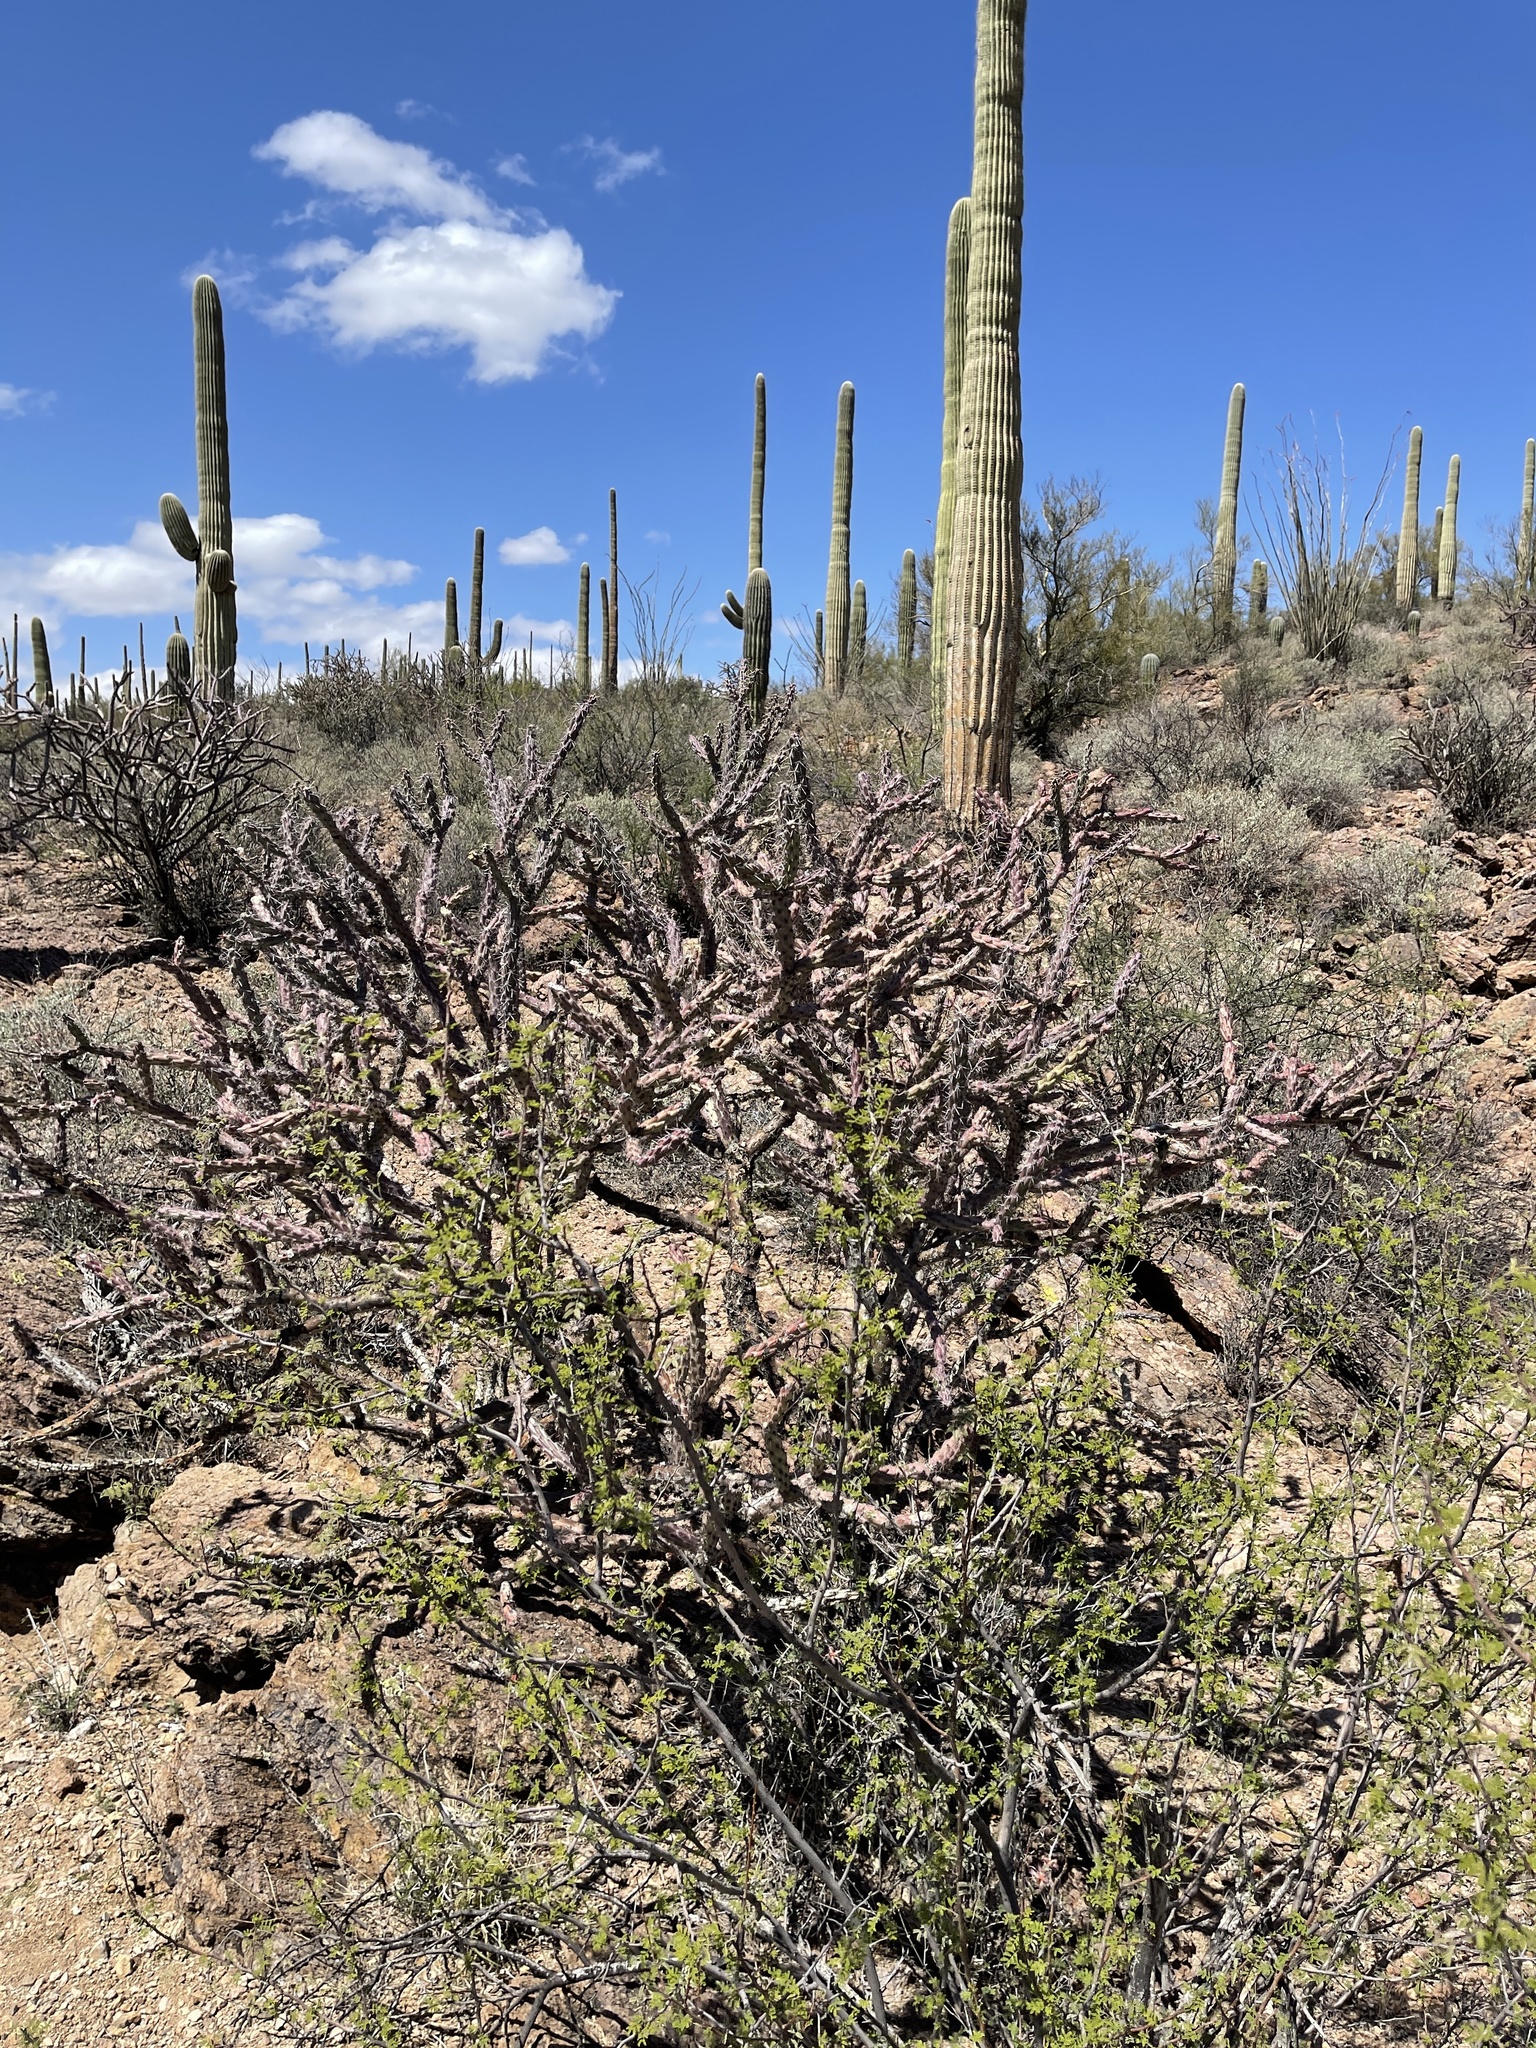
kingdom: Plantae
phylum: Tracheophyta
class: Magnoliopsida
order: Caryophyllales
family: Cactaceae
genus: Cylindropuntia
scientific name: Cylindropuntia thurberi
